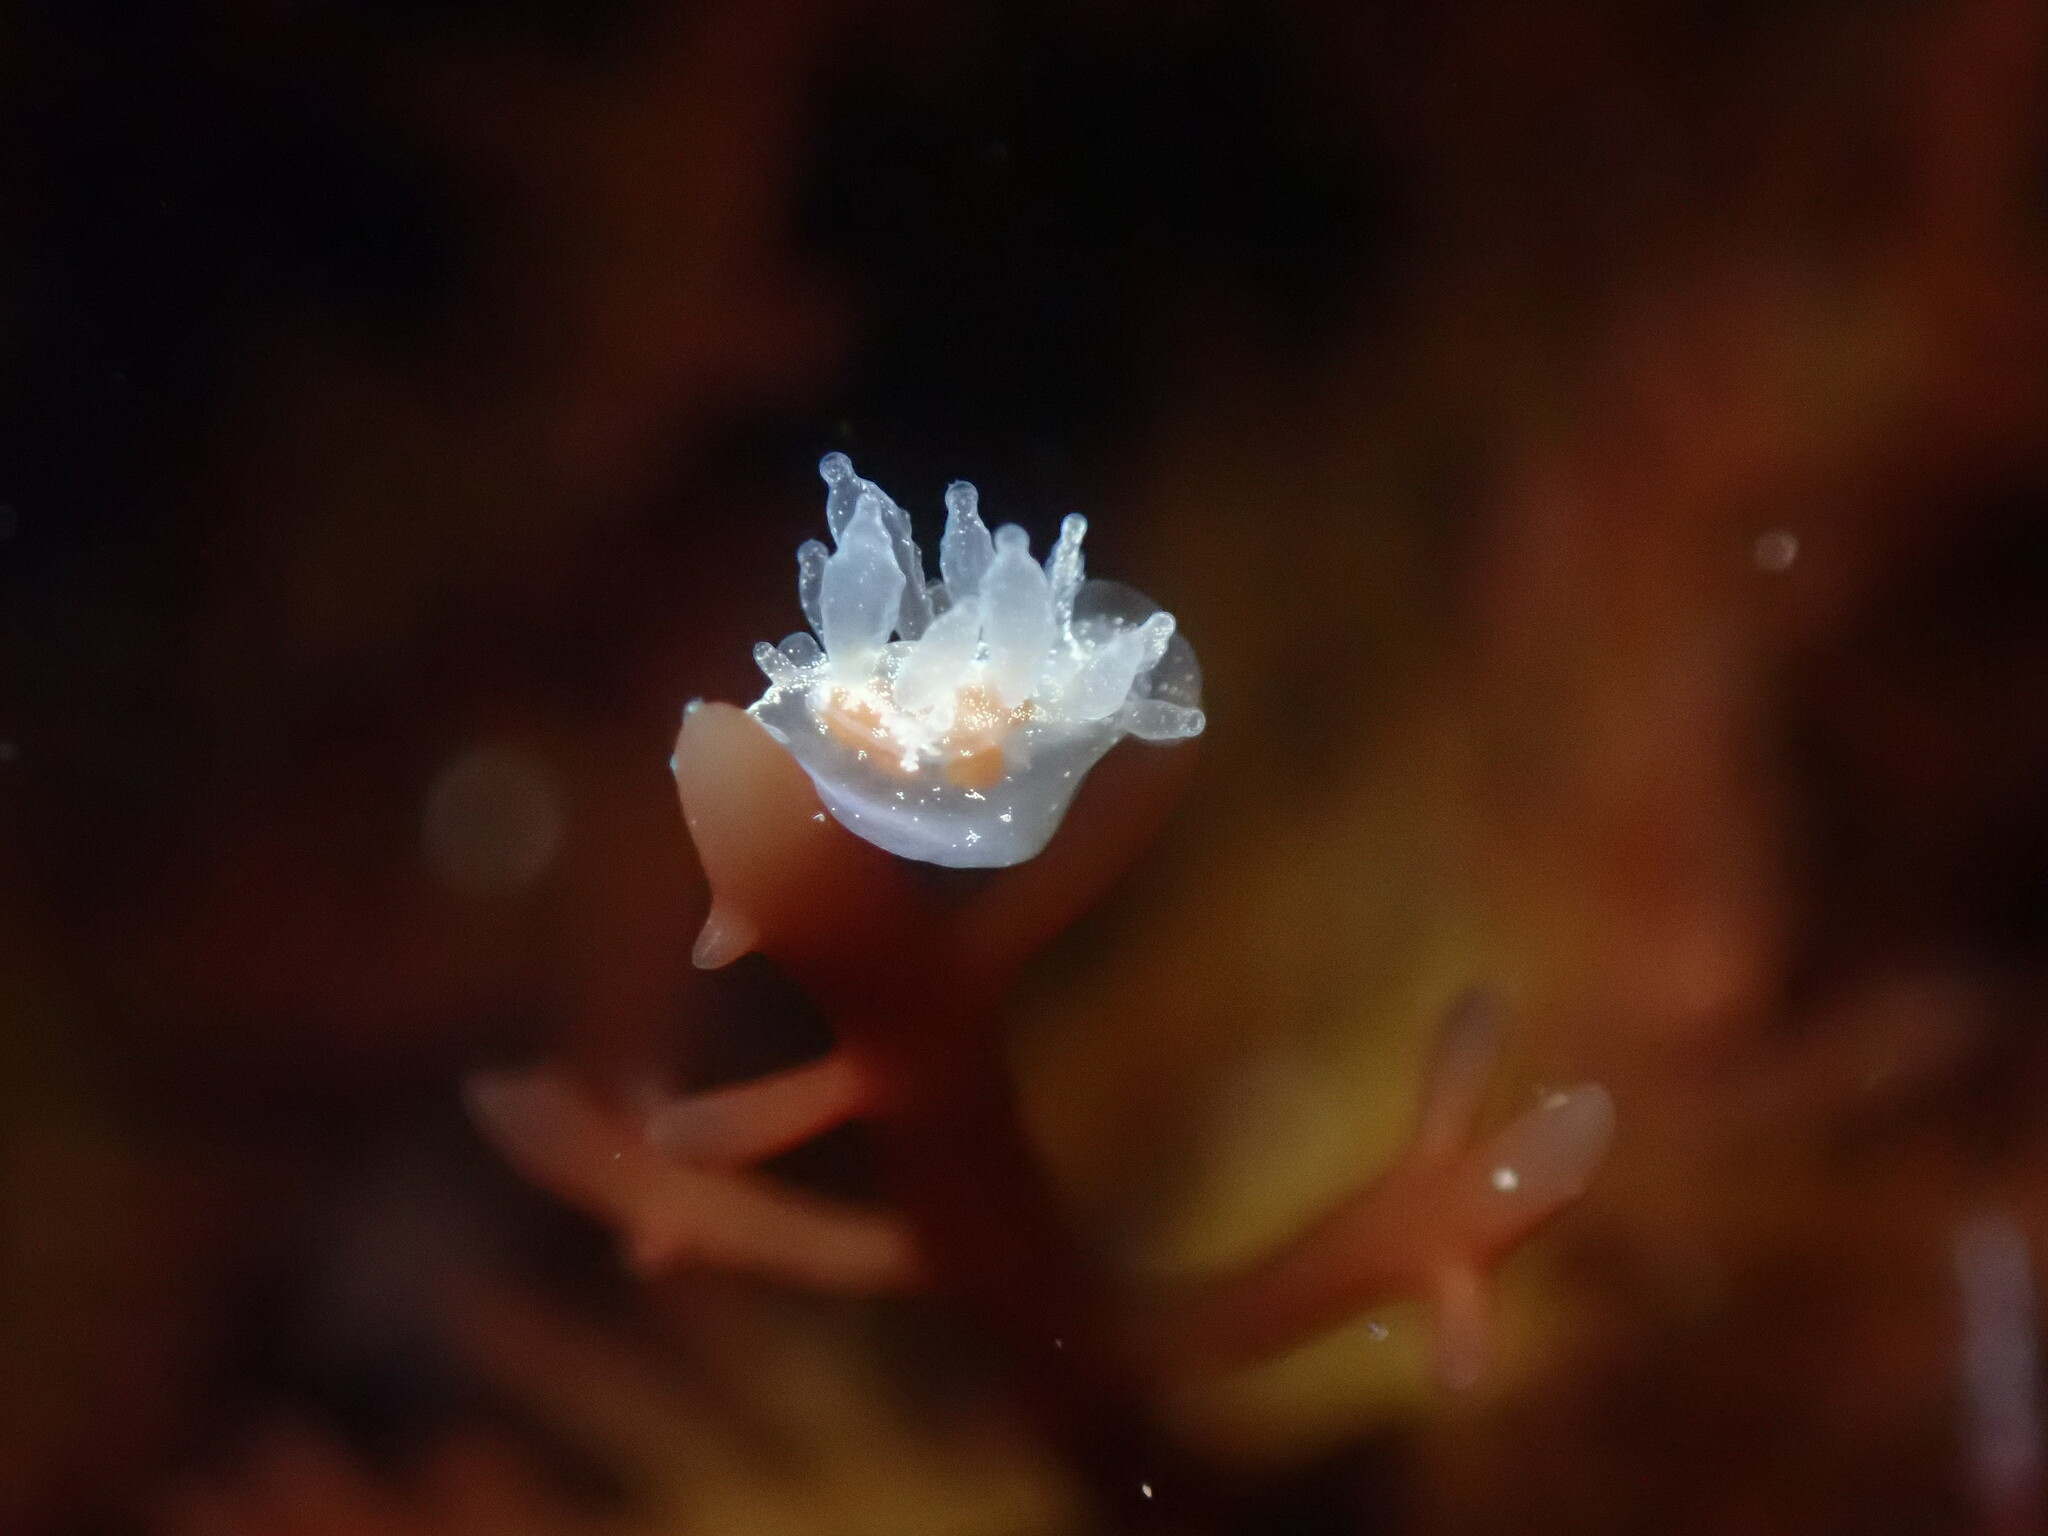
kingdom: Animalia
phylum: Mollusca
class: Gastropoda
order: Nudibranchia
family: Dironidae
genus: Dirona
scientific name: Dirona picta
